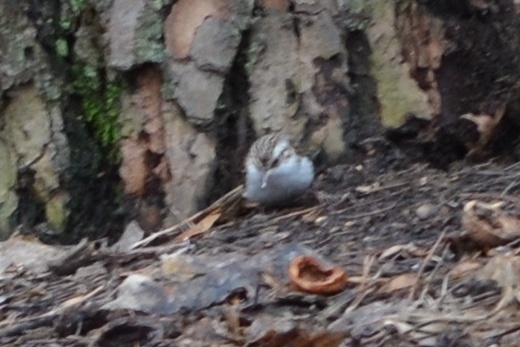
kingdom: Animalia
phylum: Chordata
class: Aves
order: Passeriformes
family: Certhiidae
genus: Certhia
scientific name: Certhia familiaris
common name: Eurasian treecreeper
